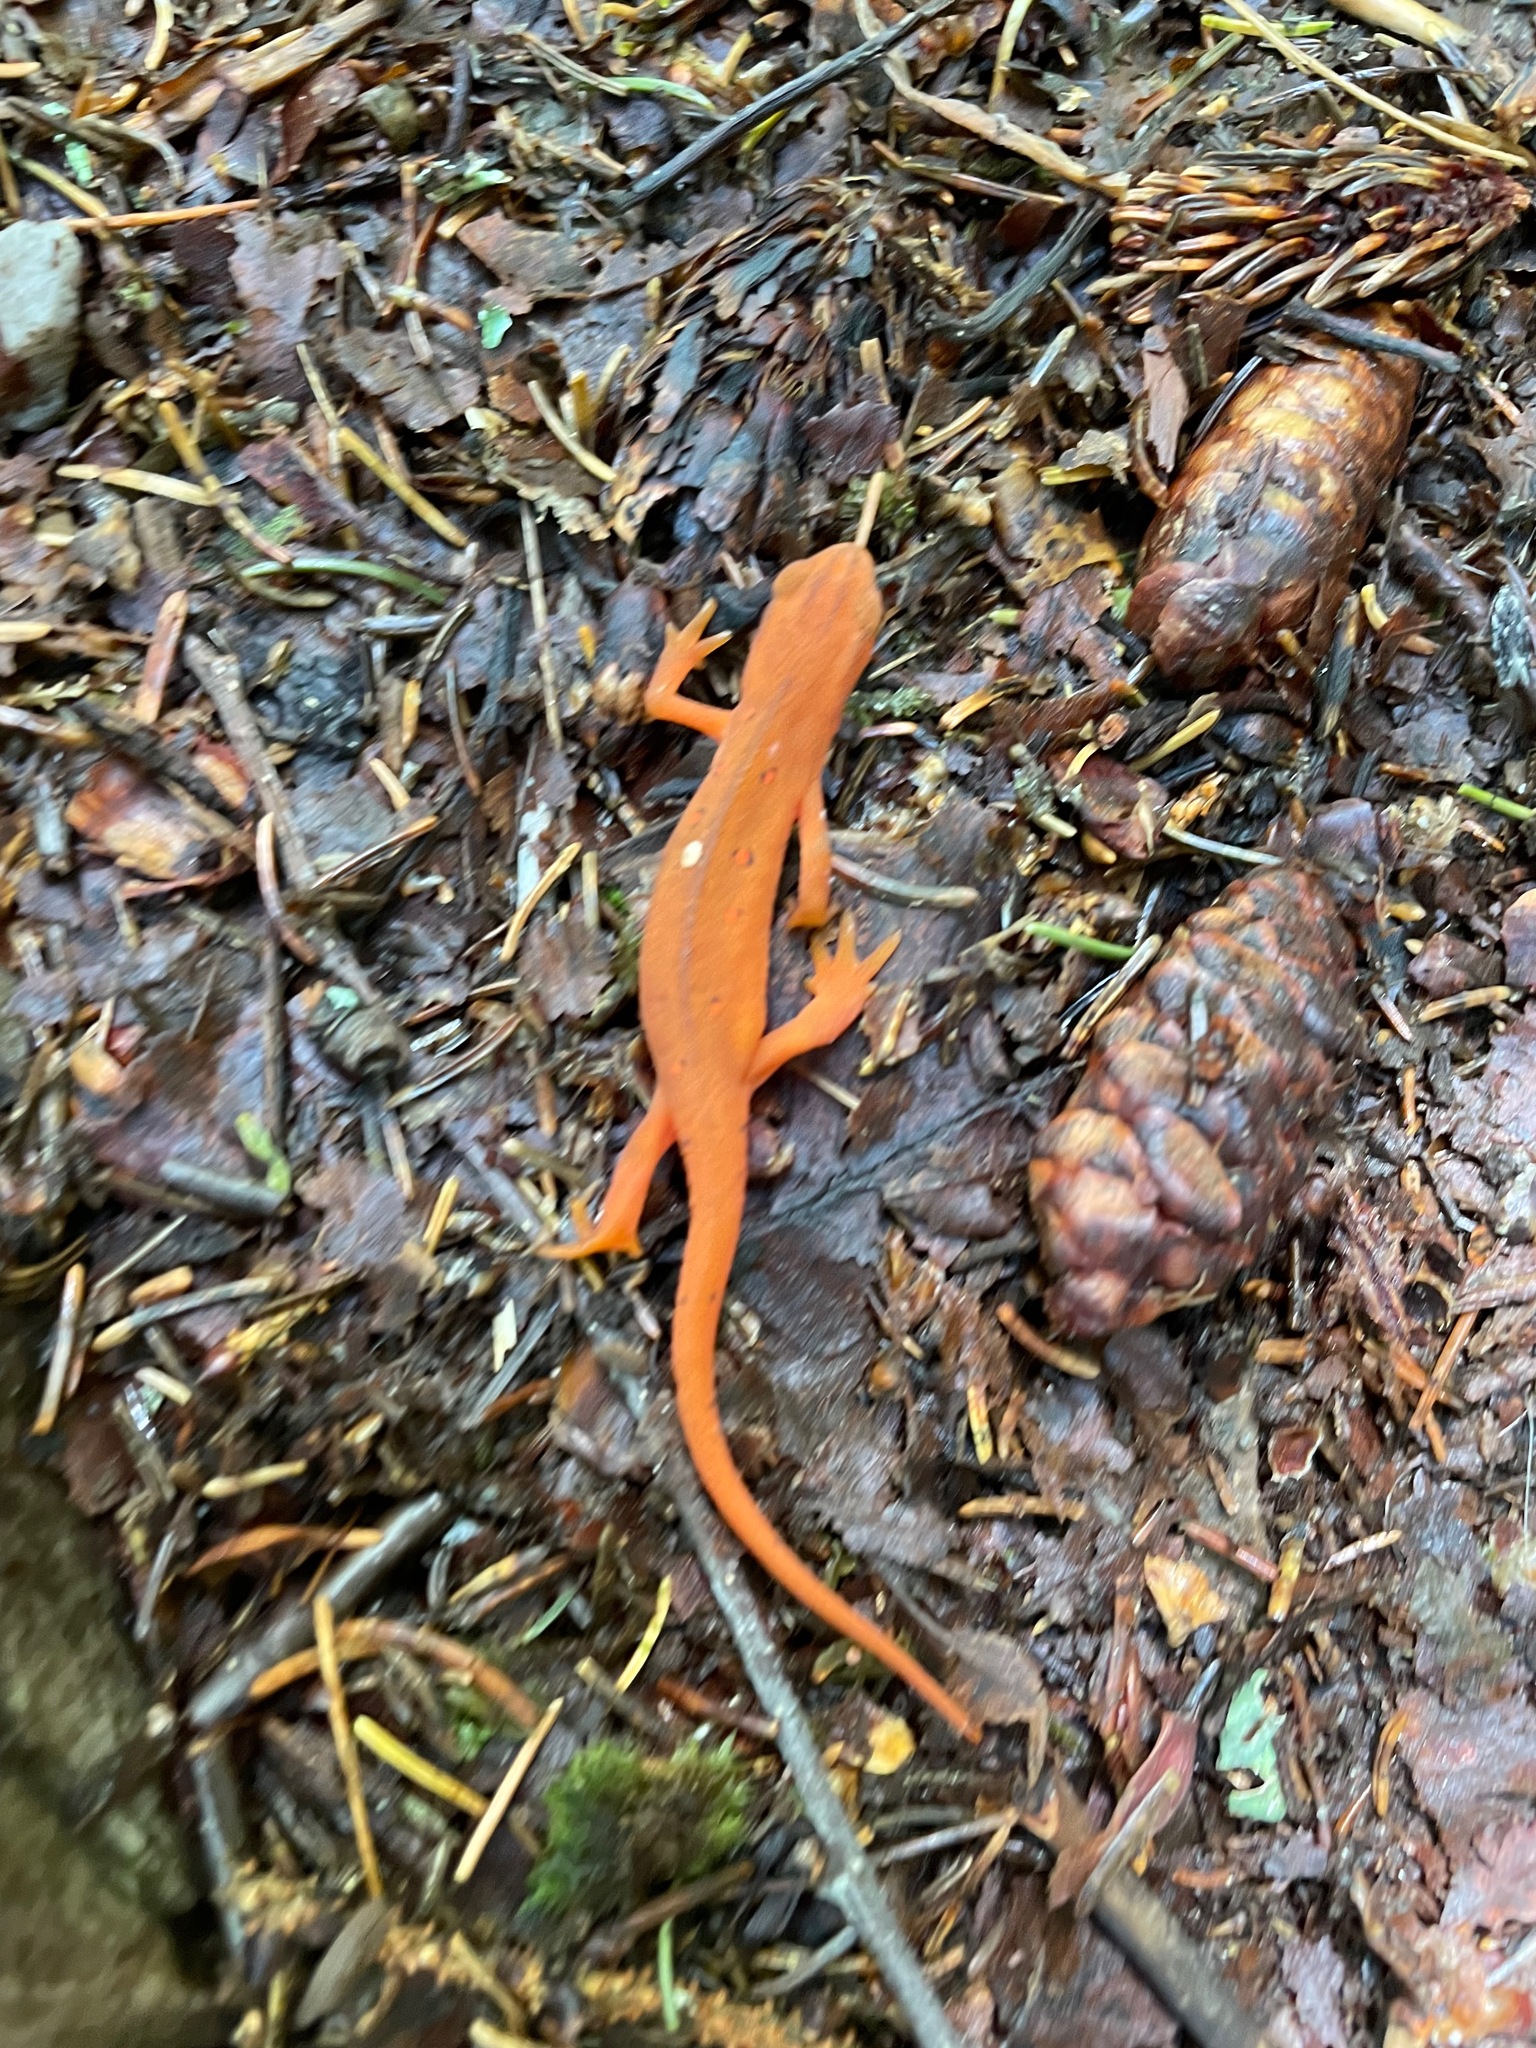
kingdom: Animalia
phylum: Chordata
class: Amphibia
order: Caudata
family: Salamandridae
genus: Notophthalmus
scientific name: Notophthalmus viridescens
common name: Eastern newt
